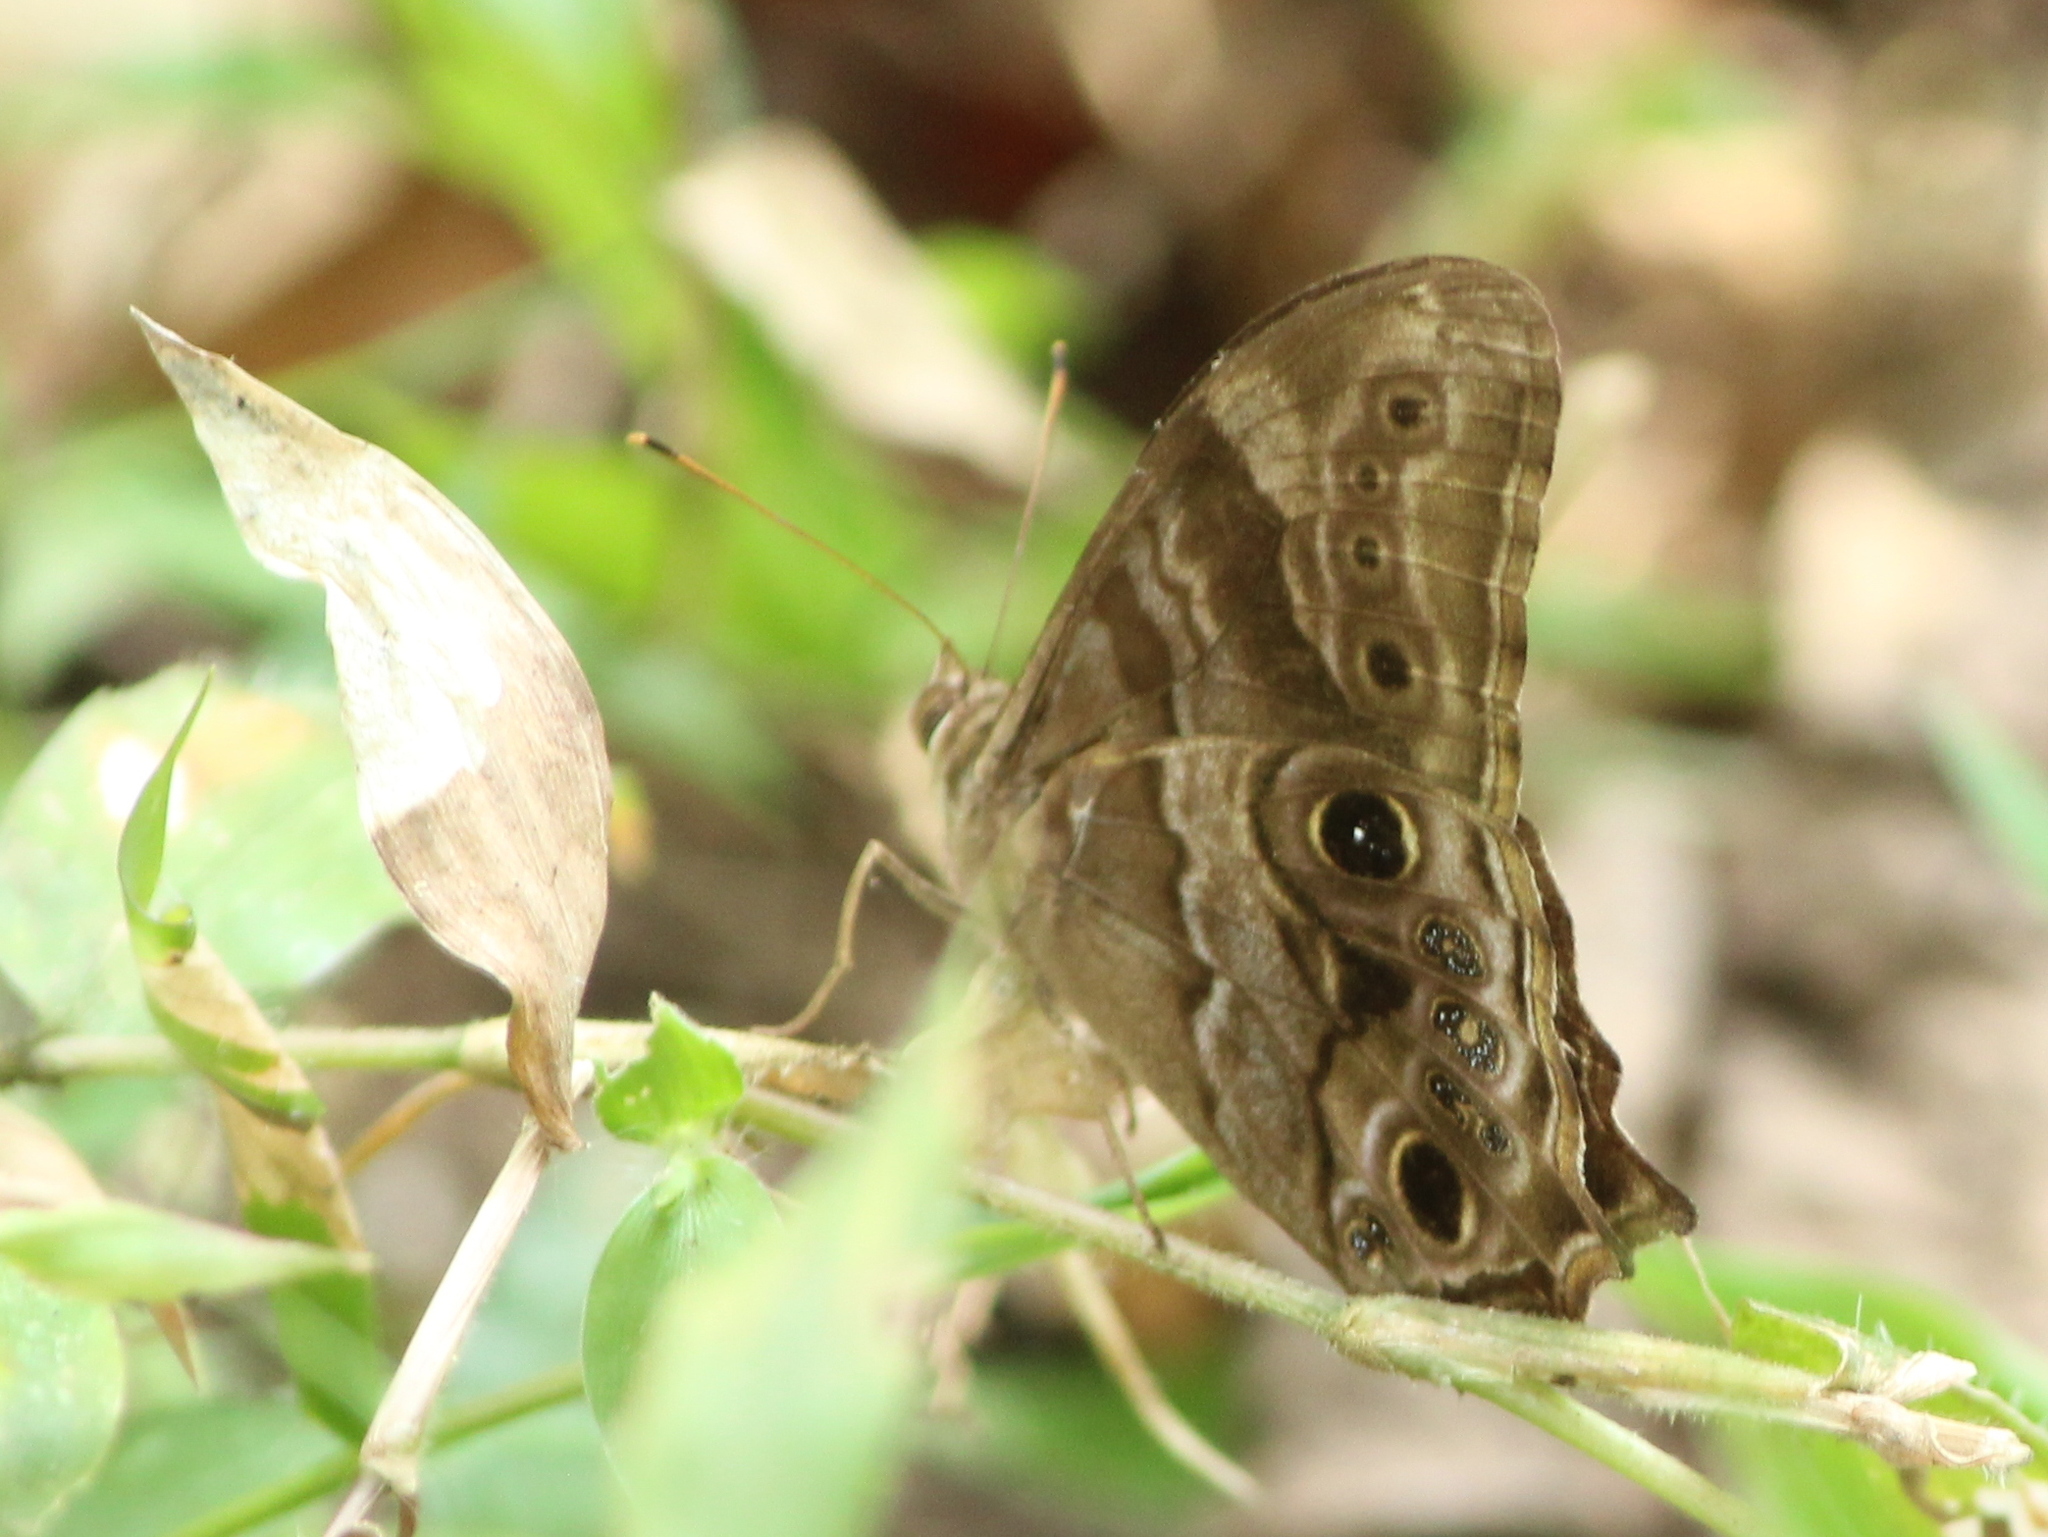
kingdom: Animalia
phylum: Arthropoda
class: Insecta
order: Lepidoptera
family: Nymphalidae
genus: Lethe
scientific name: Lethe drypetis
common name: Tamil treebrown
